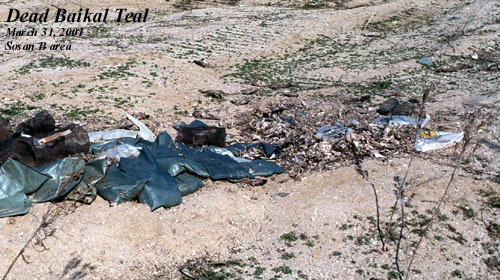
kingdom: Animalia
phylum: Chordata
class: Aves
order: Anseriformes
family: Anatidae
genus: Sibirionetta
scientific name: Sibirionetta formosa
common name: Baikal teal
